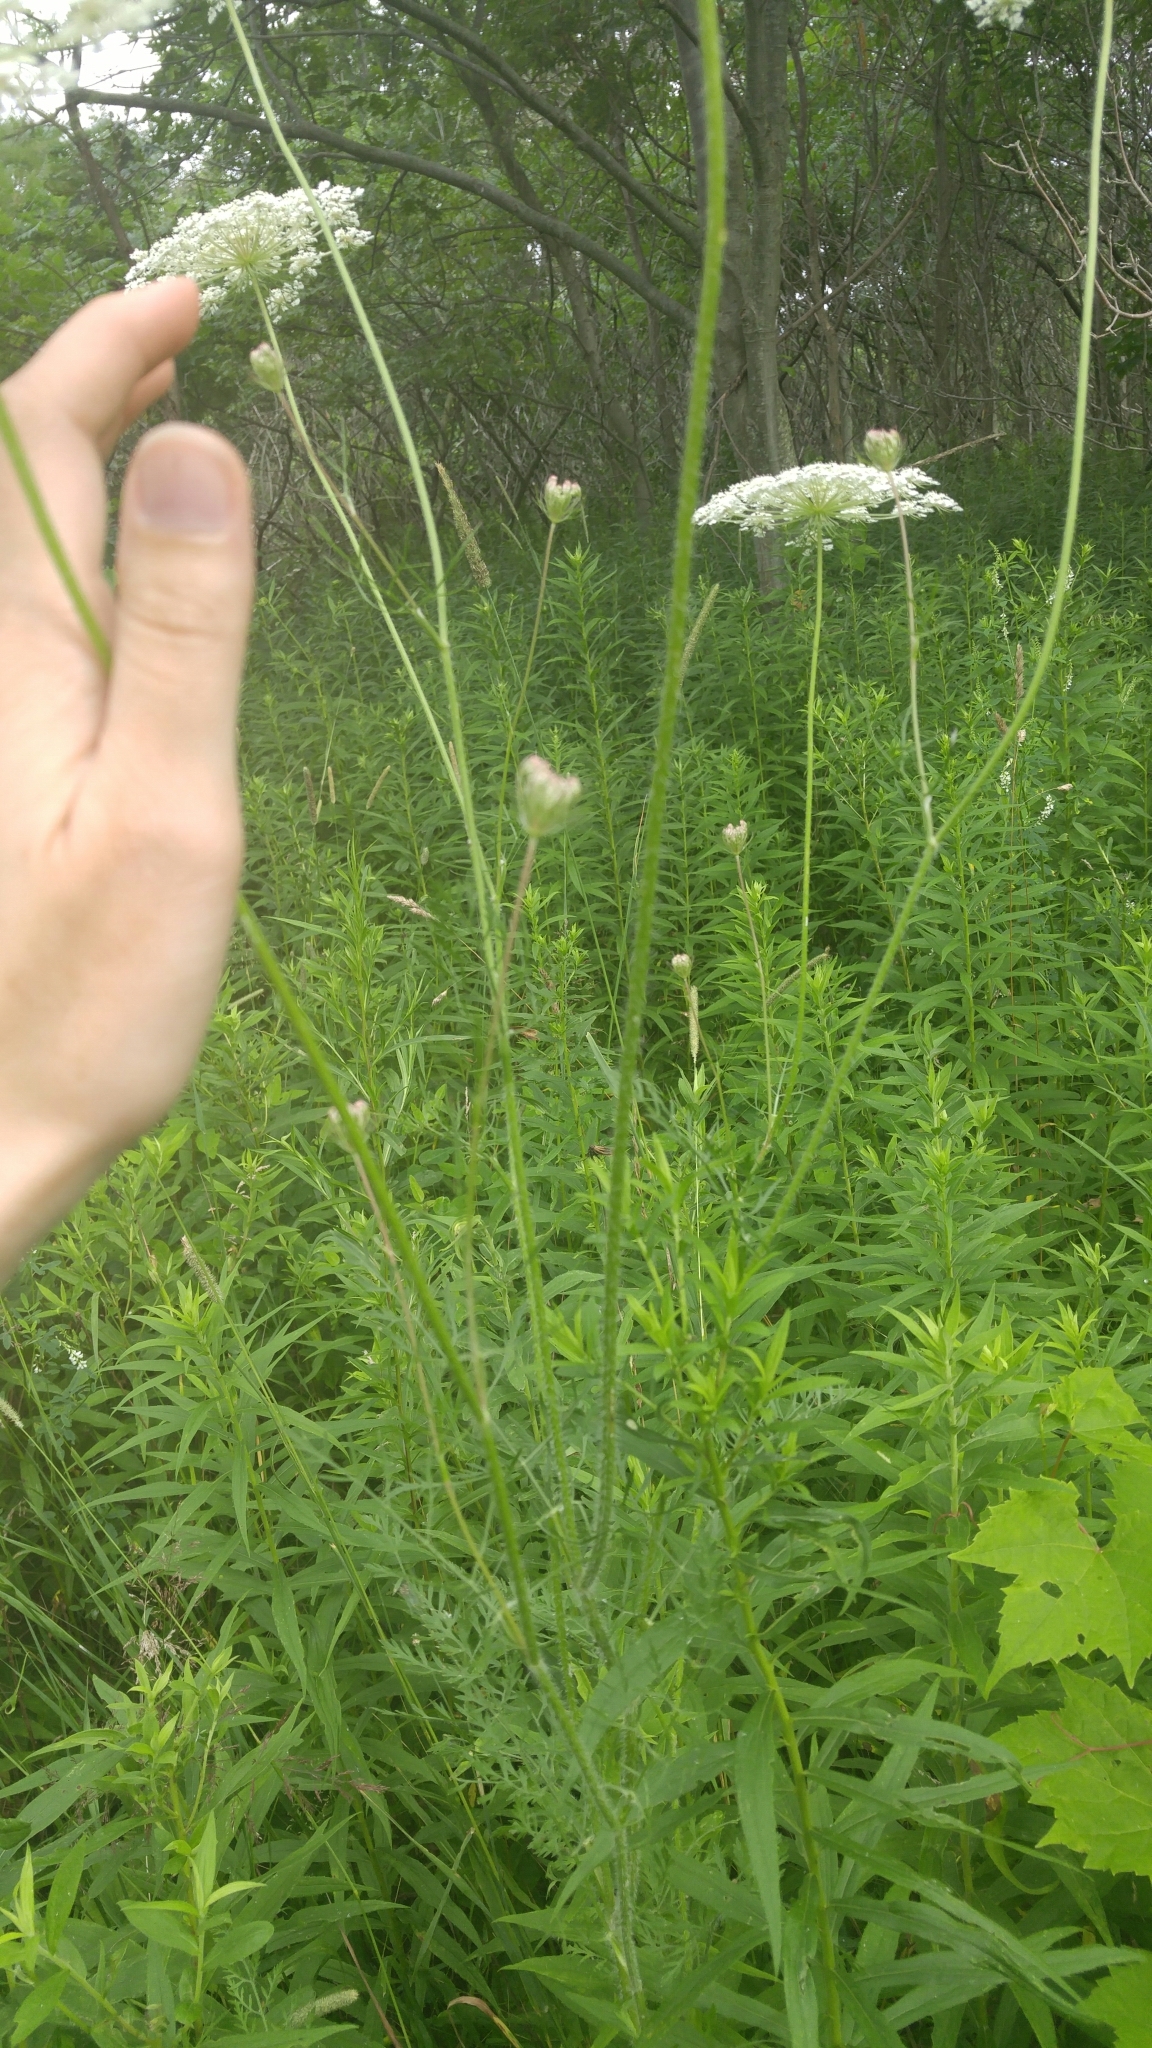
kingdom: Plantae
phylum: Tracheophyta
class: Magnoliopsida
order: Apiales
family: Apiaceae
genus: Daucus
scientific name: Daucus carota
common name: Wild carrot
